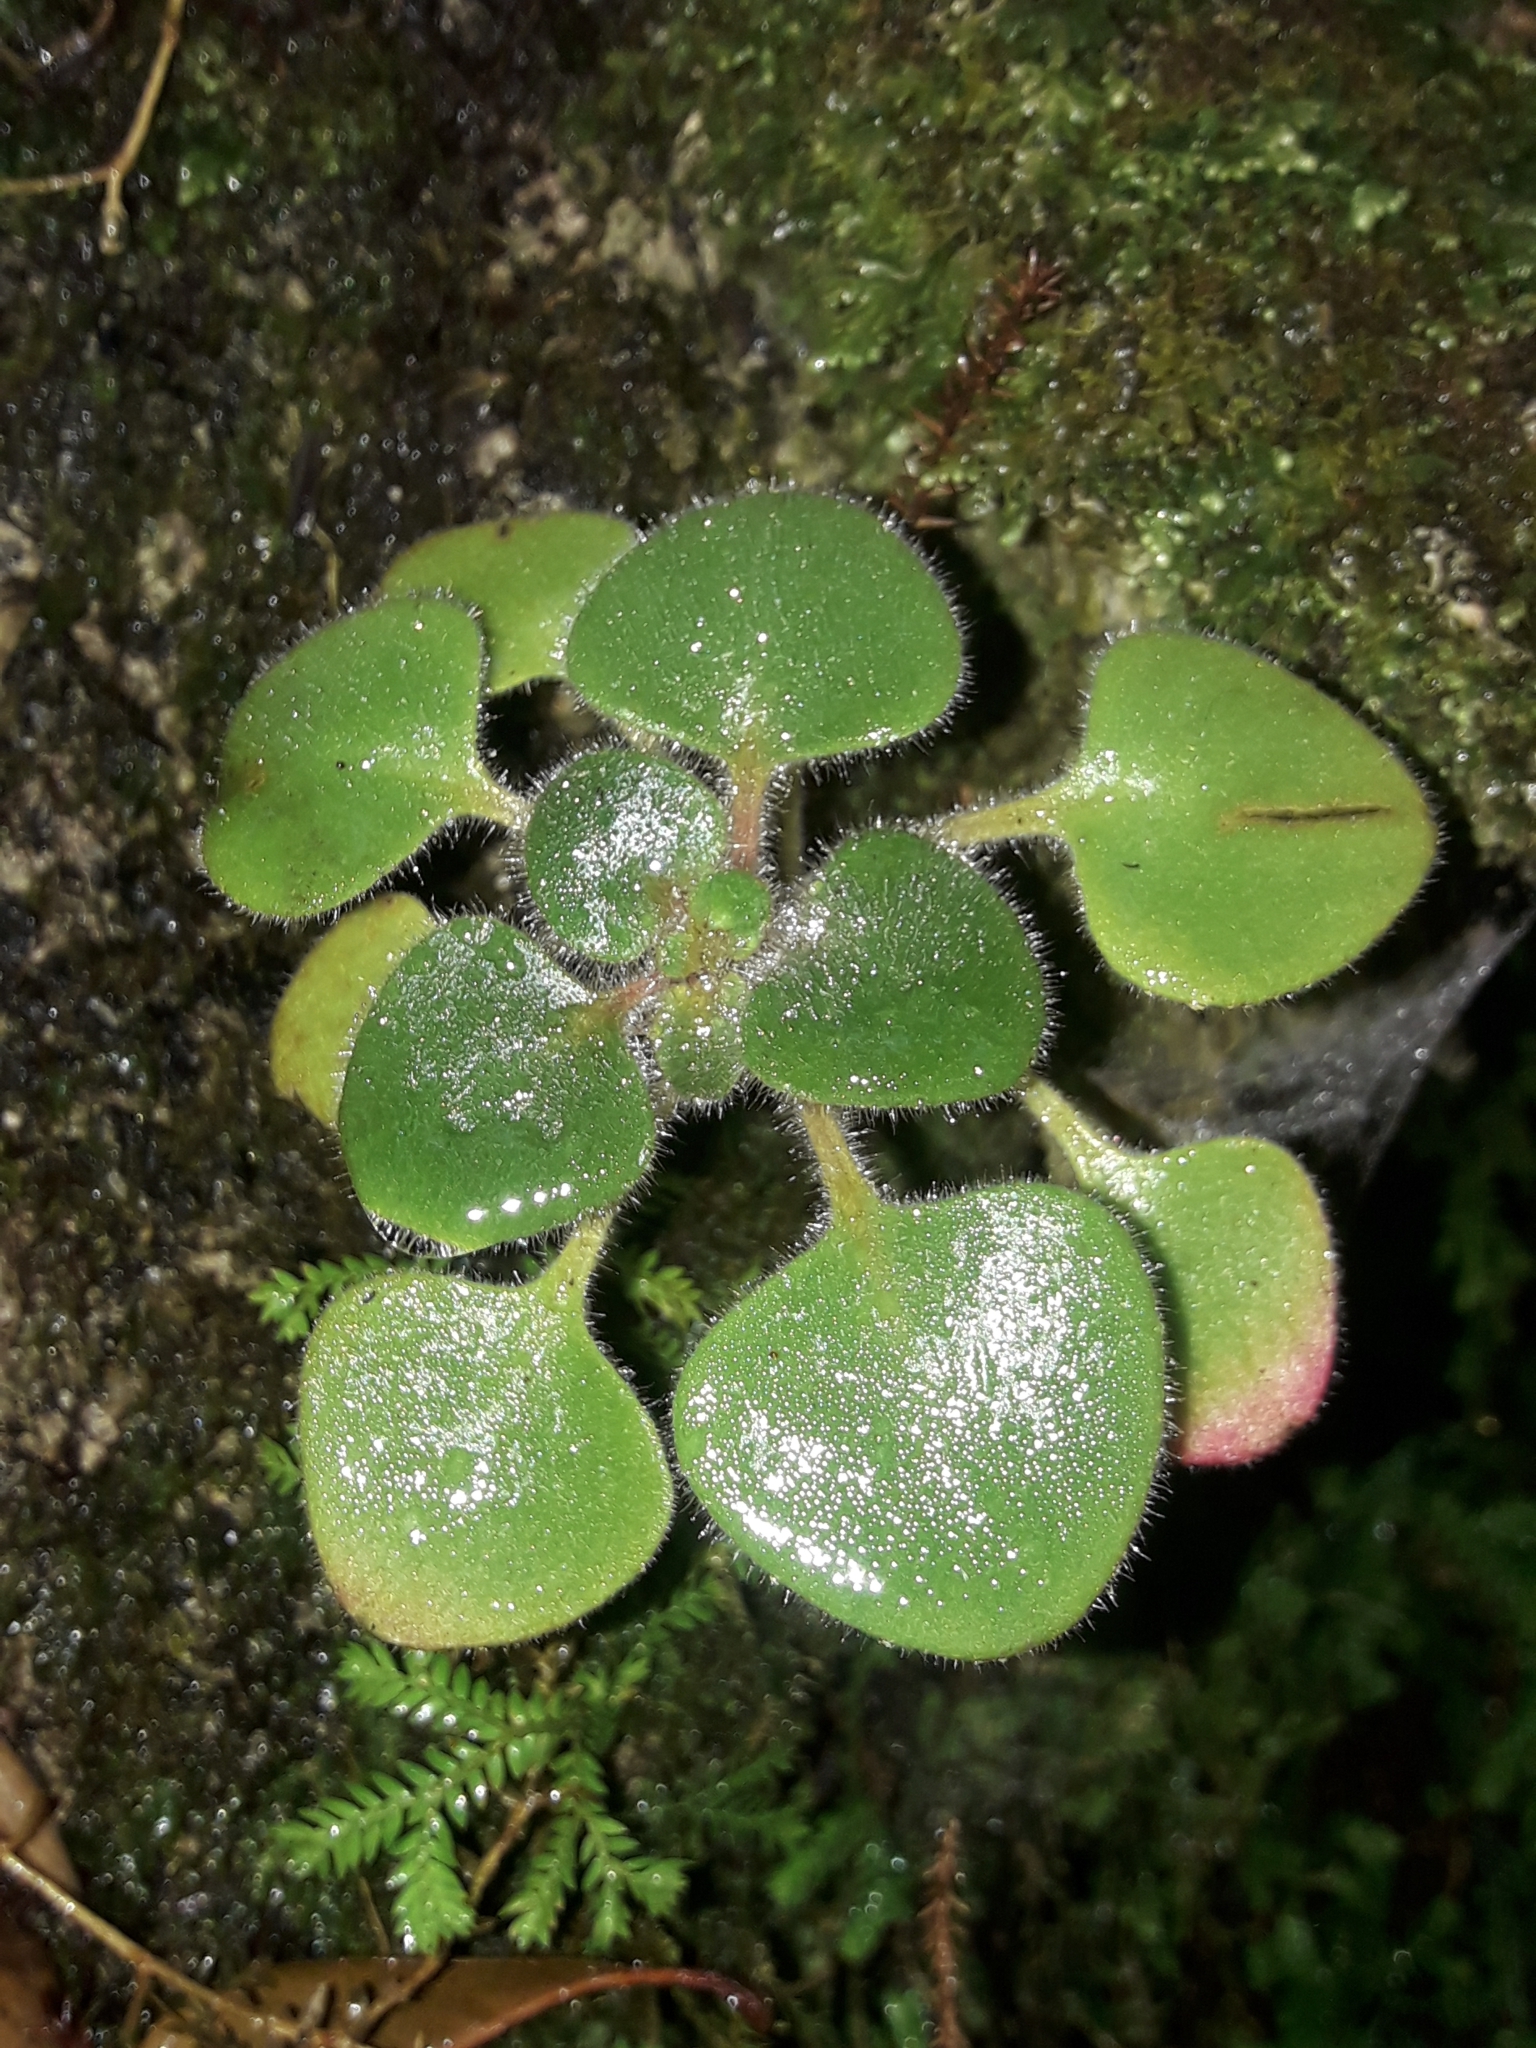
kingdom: Plantae
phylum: Tracheophyta
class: Magnoliopsida
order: Saxifragales
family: Crassulaceae
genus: Aichryson
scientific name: Aichryson laxum
